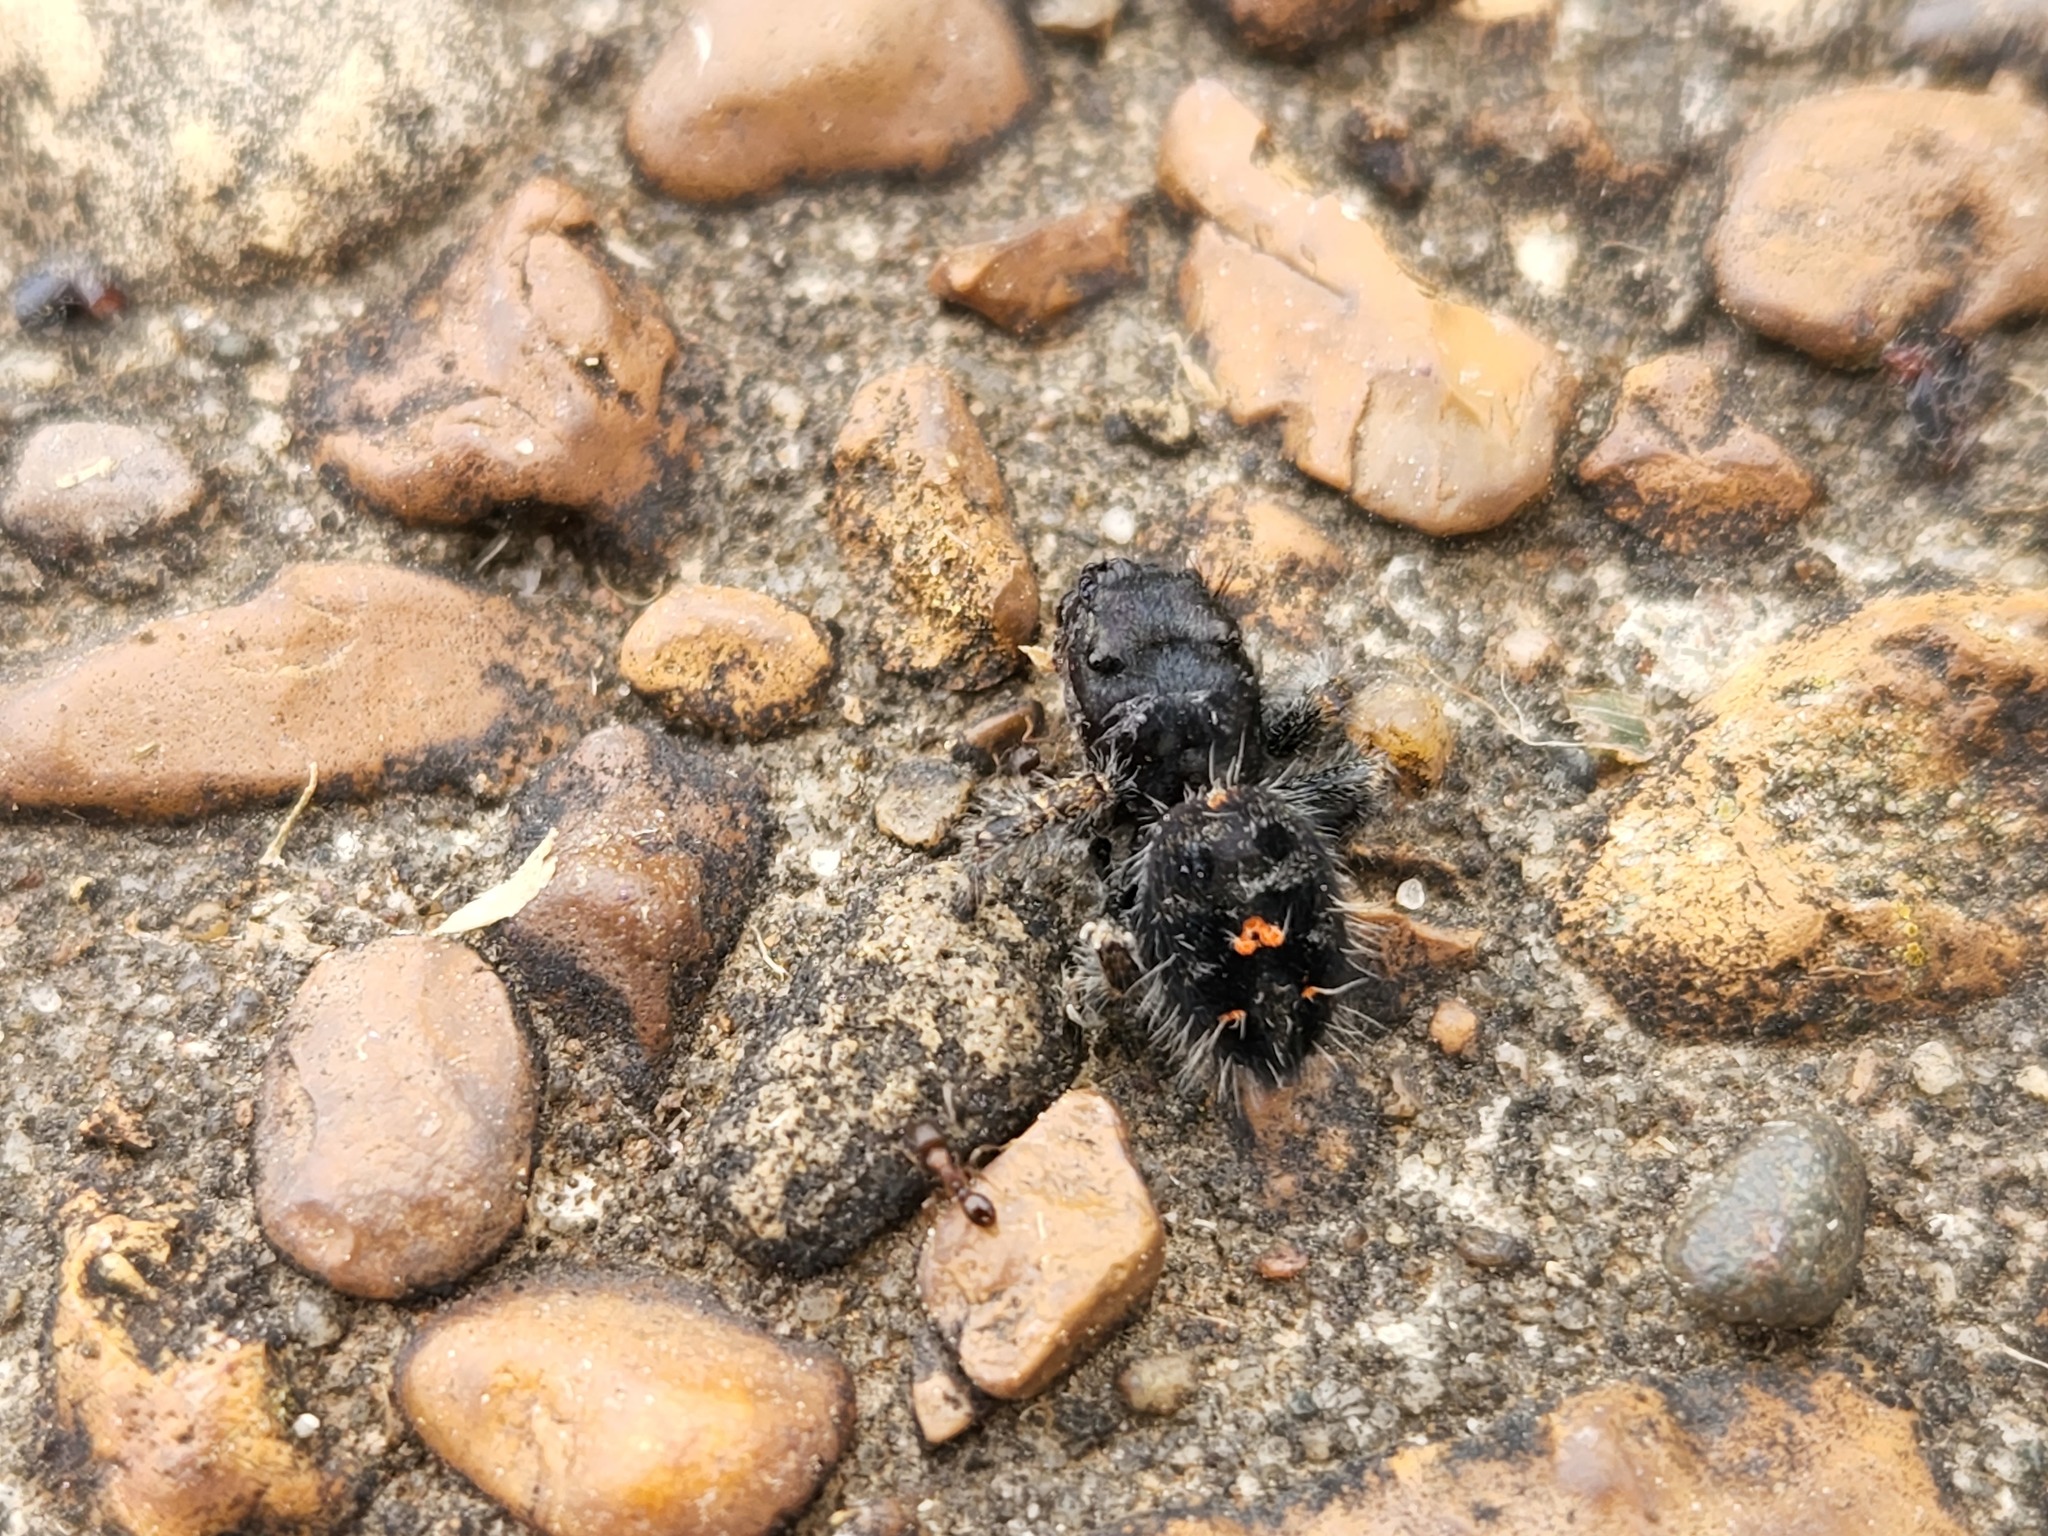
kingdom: Animalia
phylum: Arthropoda
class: Arachnida
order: Araneae
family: Salticidae
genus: Phidippus
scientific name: Phidippus audax
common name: Bold jumper
